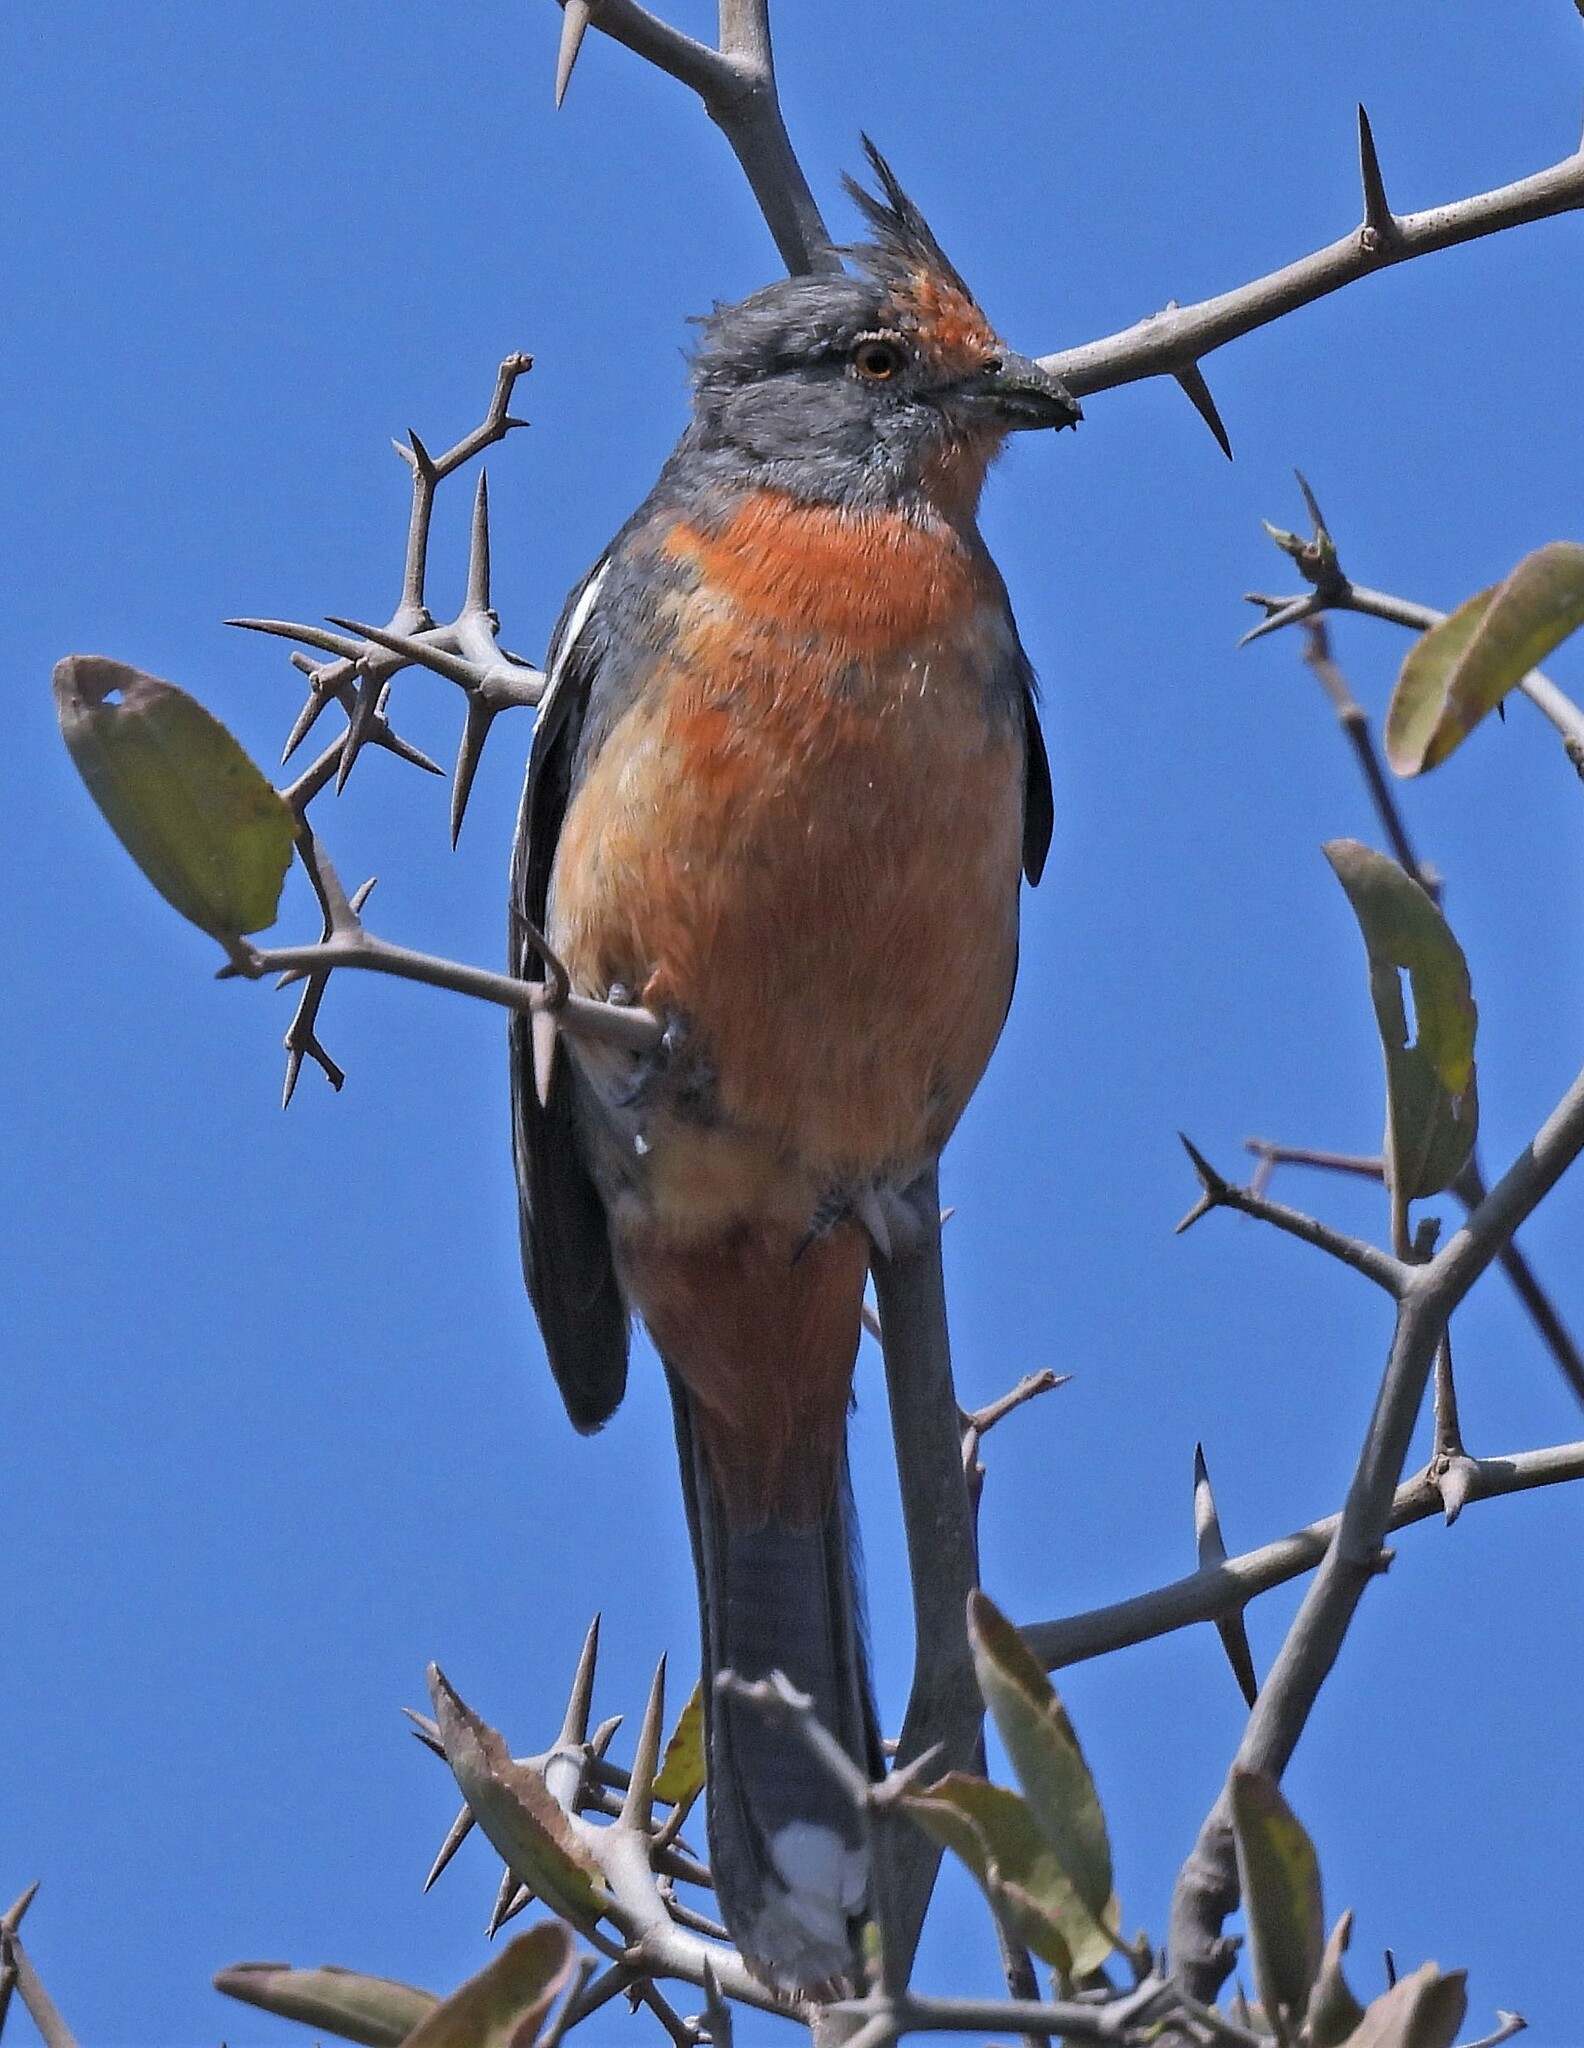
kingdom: Animalia
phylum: Chordata
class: Aves
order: Passeriformes
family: Cotingidae
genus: Phytotoma
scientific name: Phytotoma rutila
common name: White-tipped plantcutter
